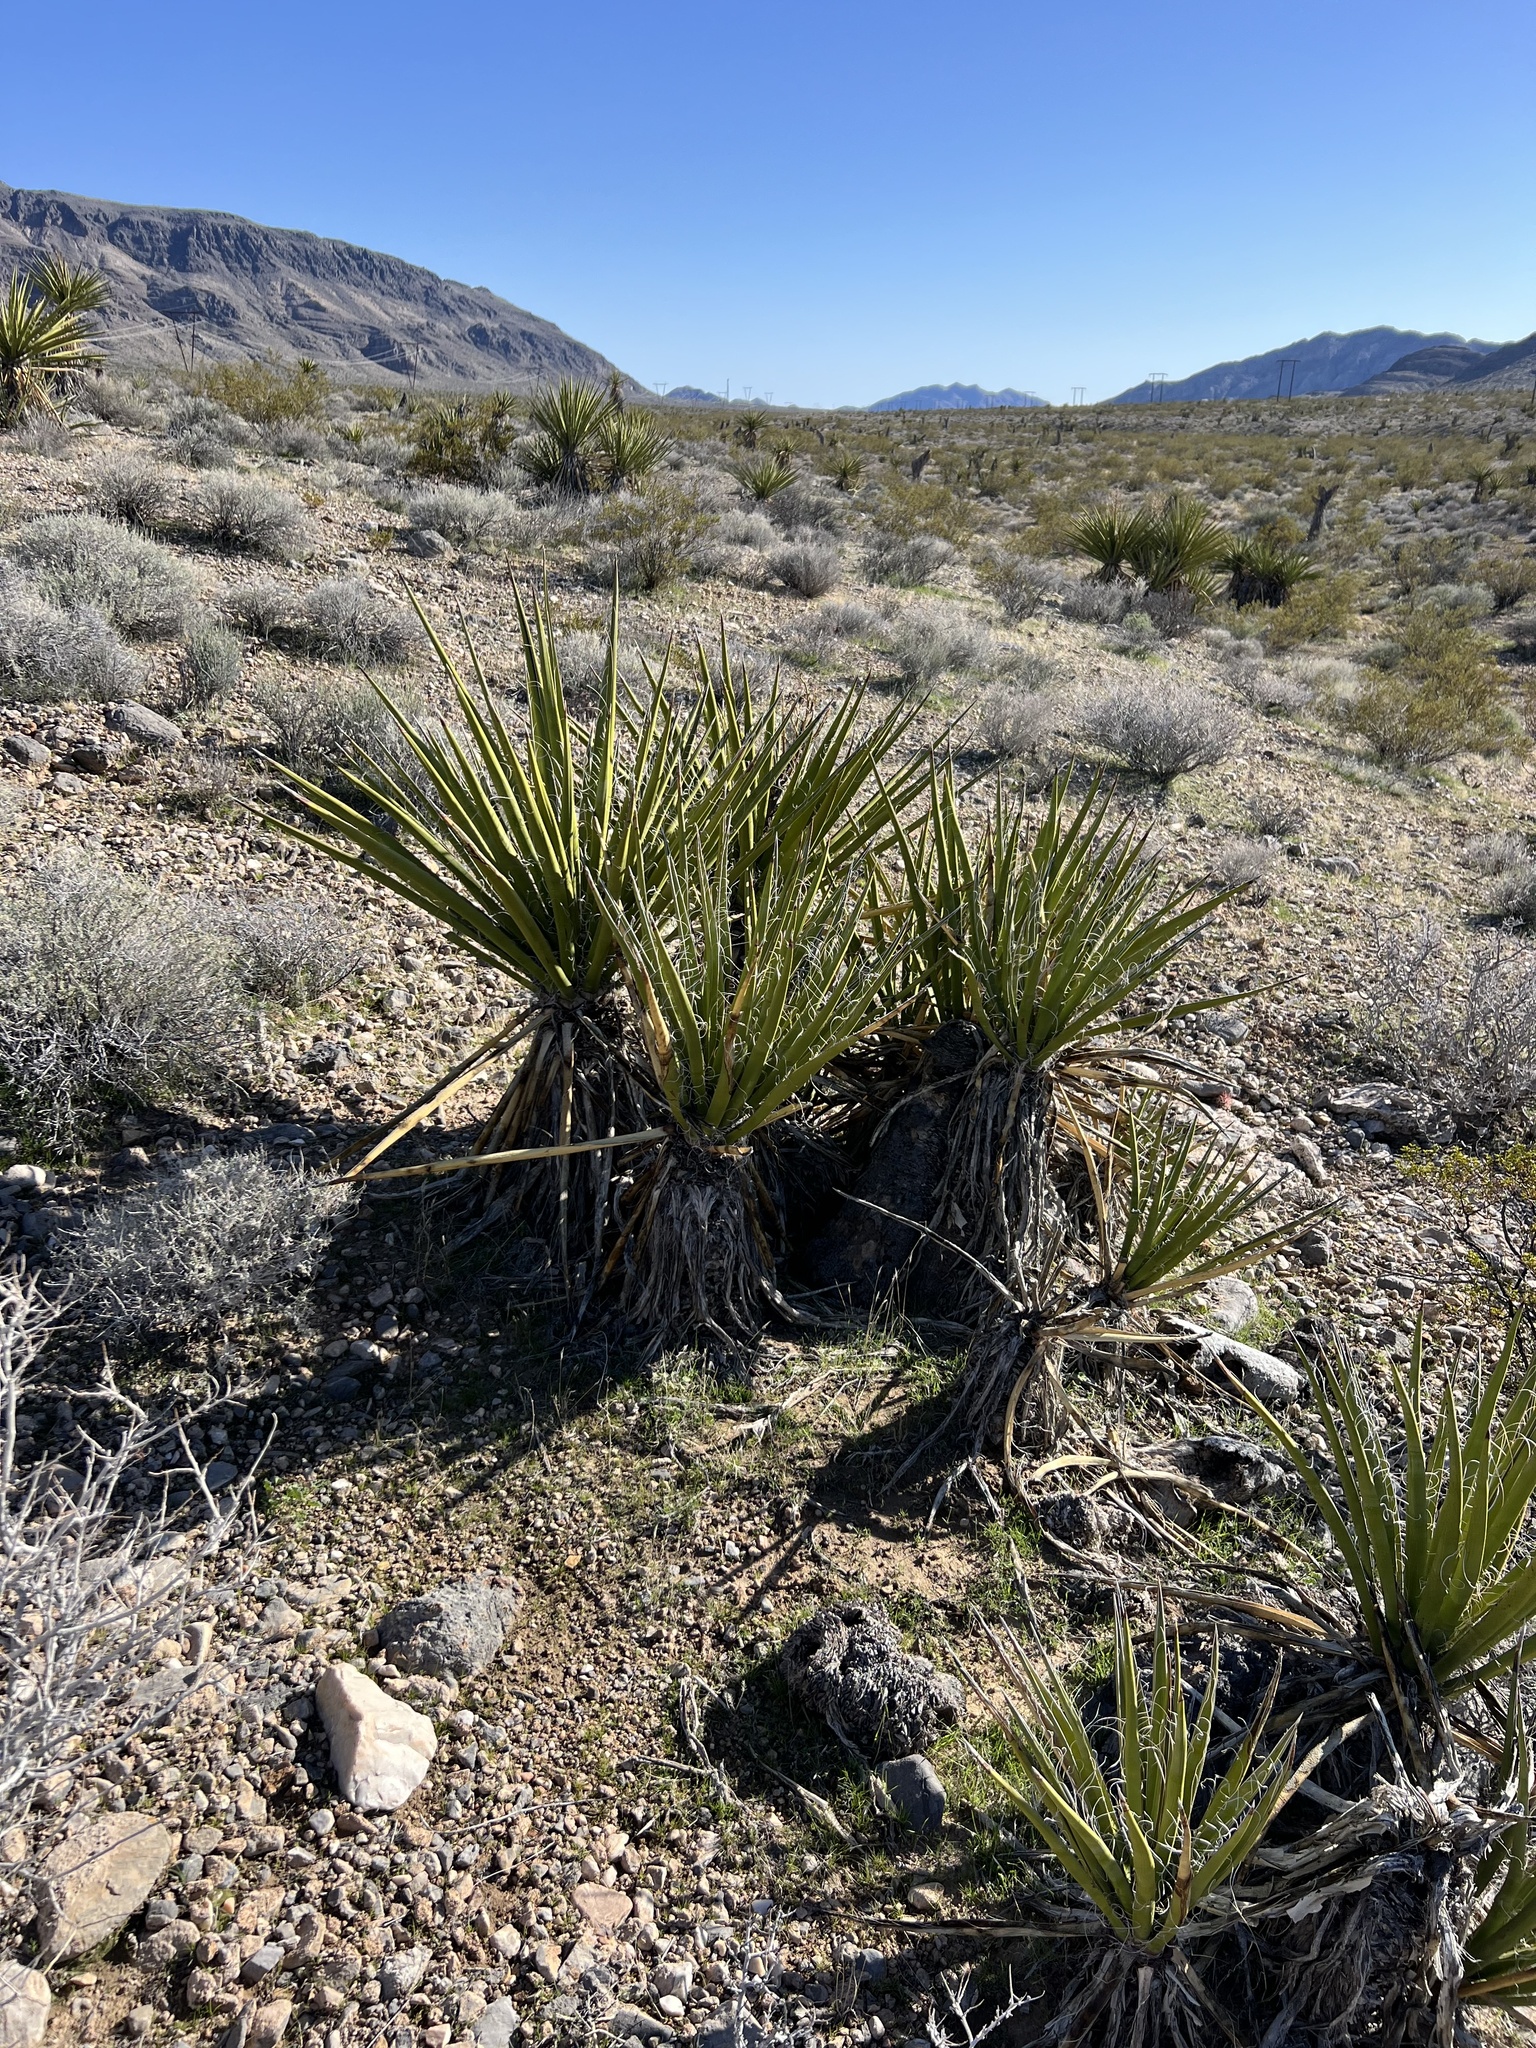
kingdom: Plantae
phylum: Tracheophyta
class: Liliopsida
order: Asparagales
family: Asparagaceae
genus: Yucca
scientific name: Yucca schidigera
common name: Mojave yucca
